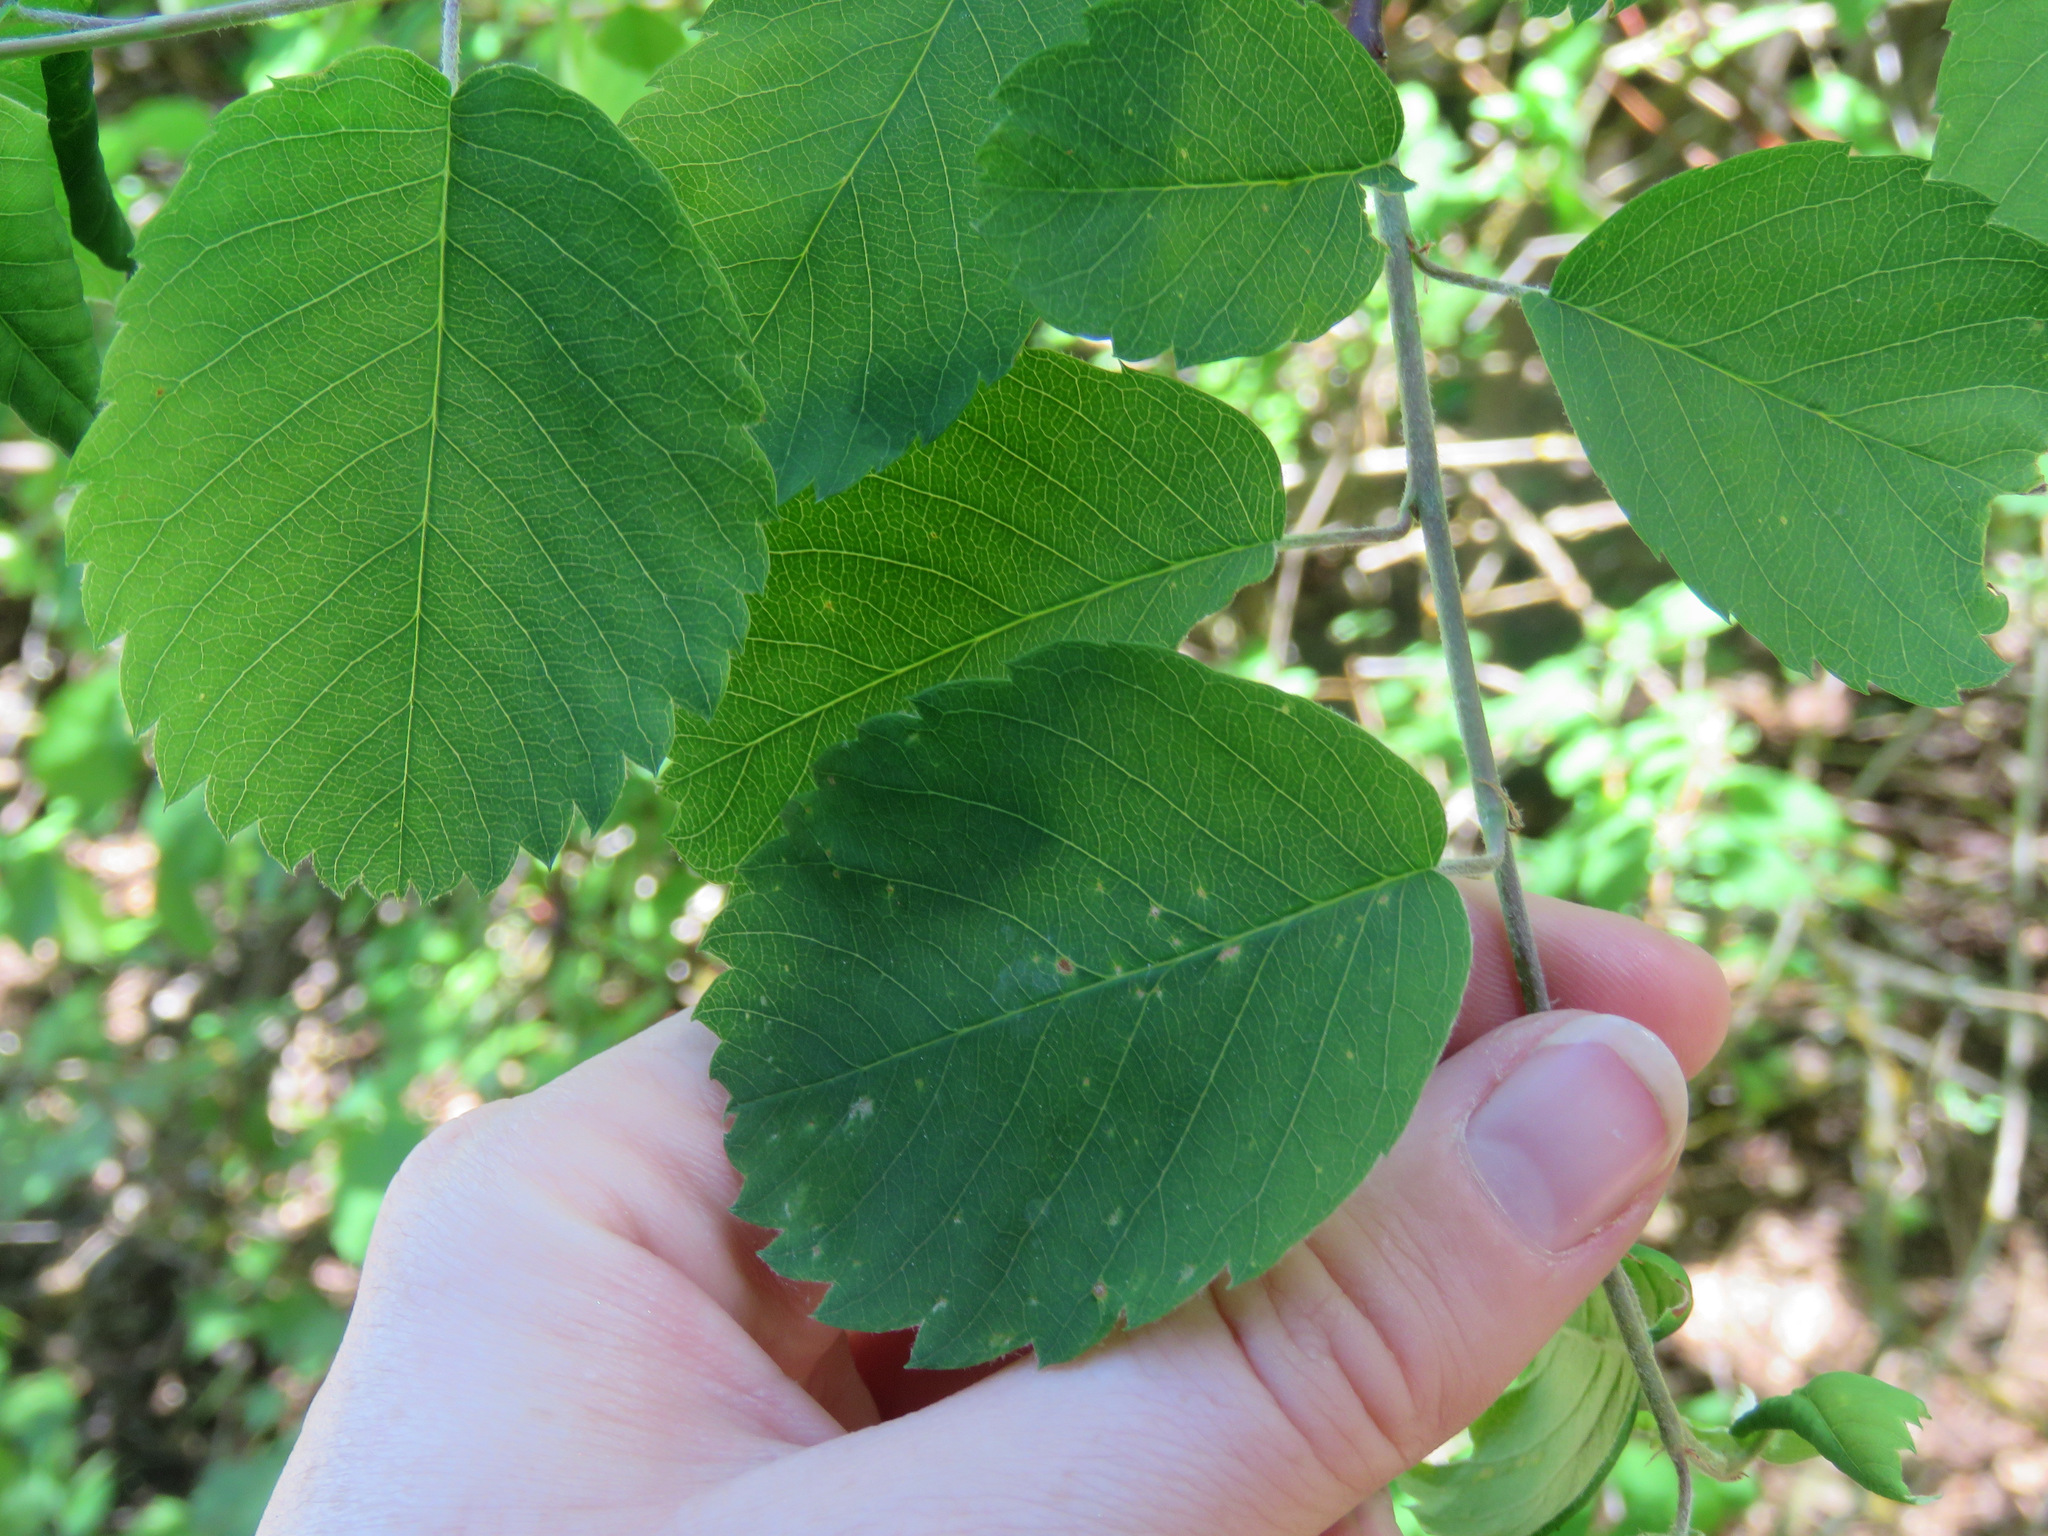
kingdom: Plantae
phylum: Tracheophyta
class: Magnoliopsida
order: Rosales
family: Rosaceae
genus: Amelanchier
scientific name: Amelanchier alnifolia
